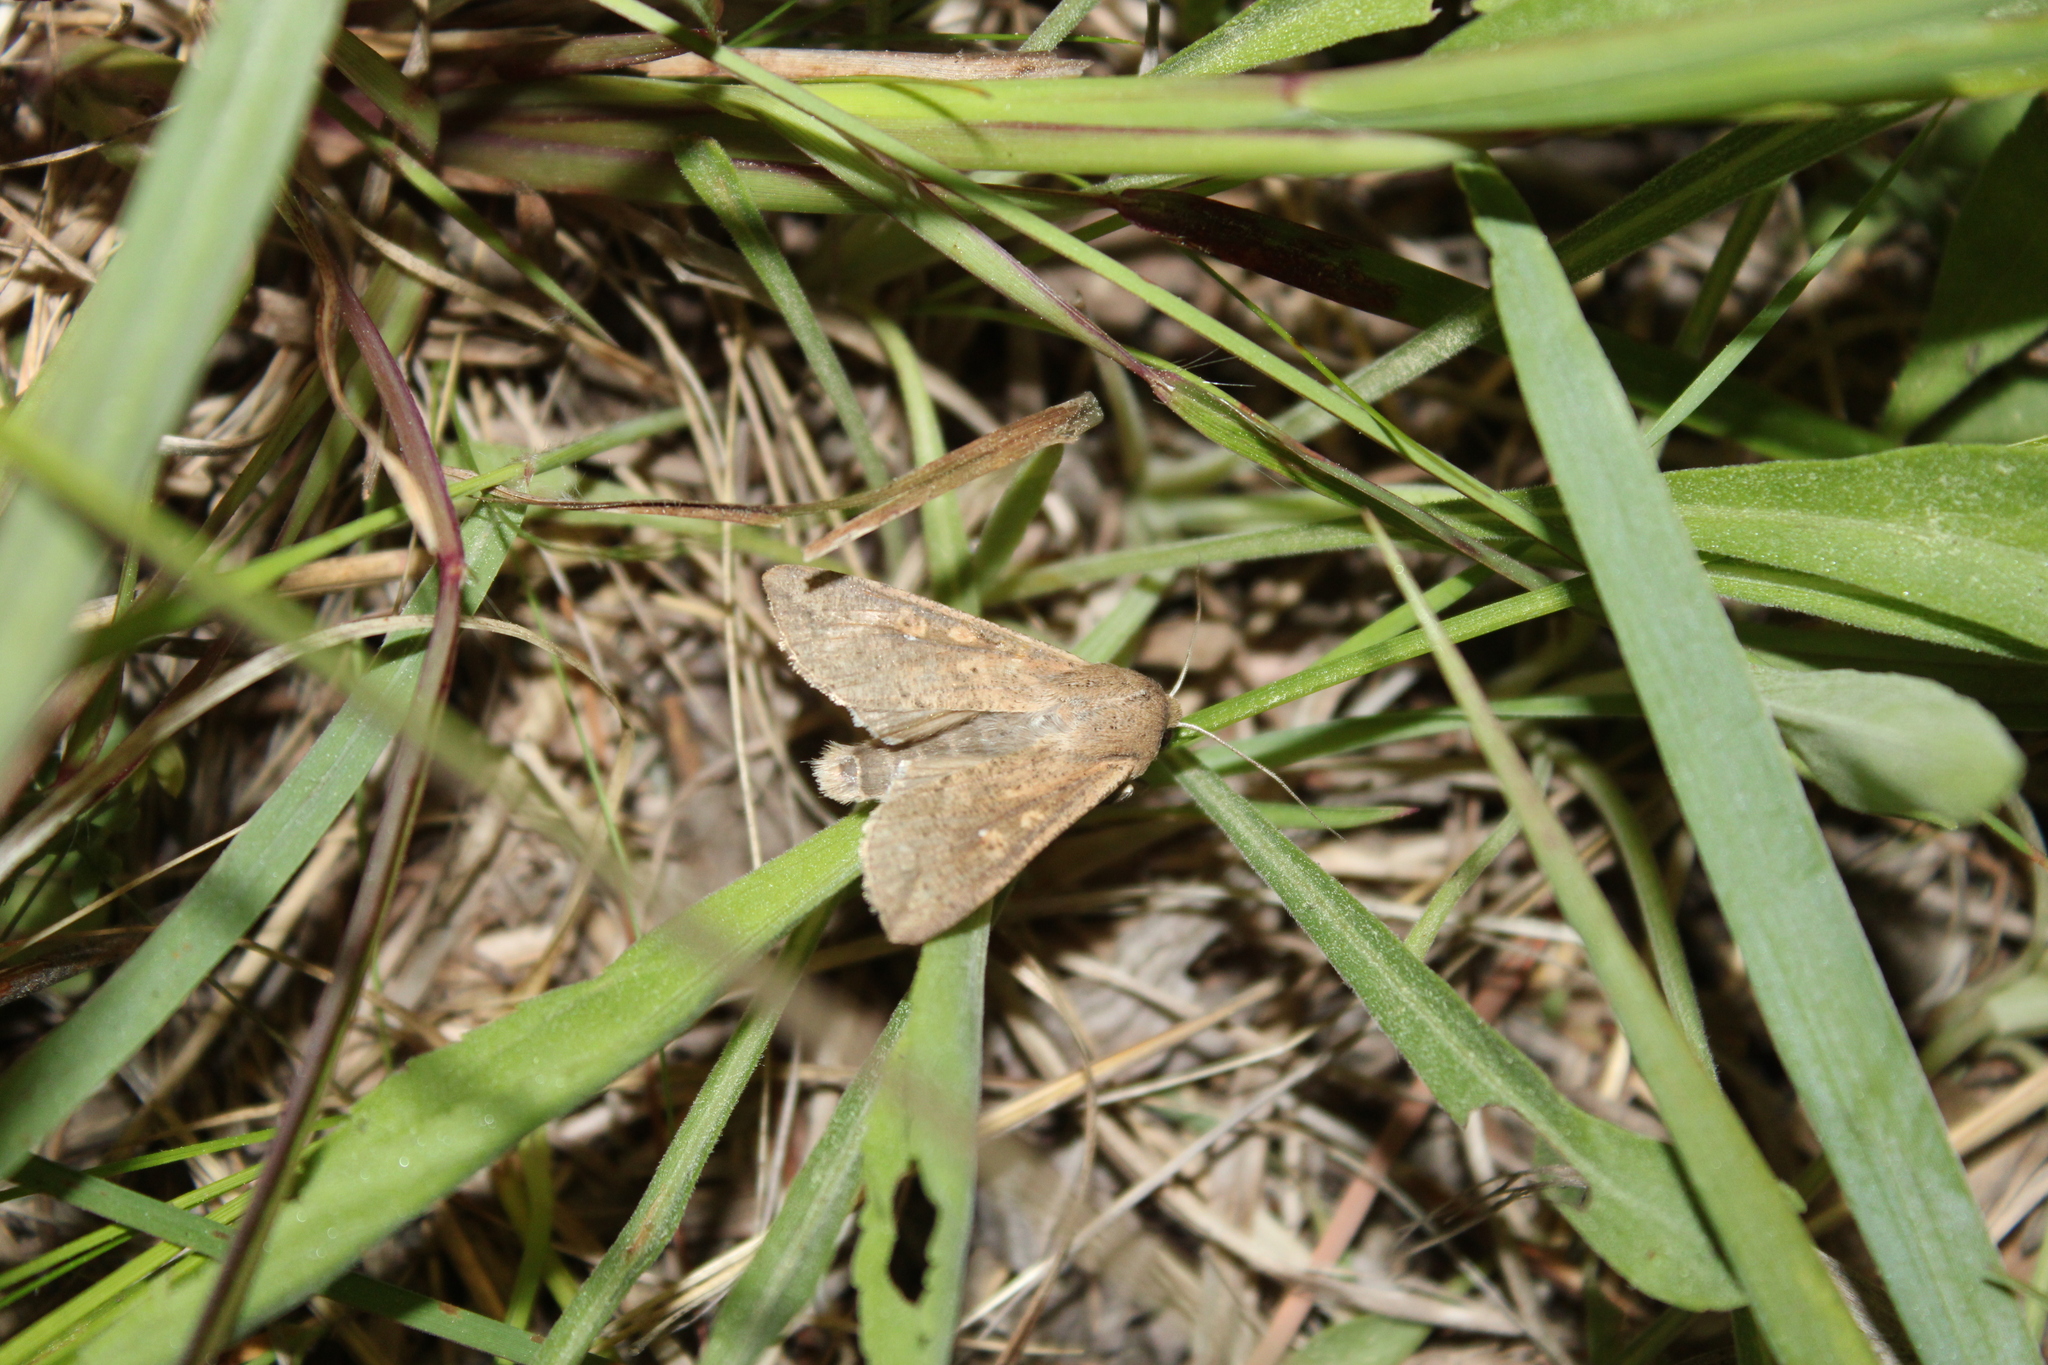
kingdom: Animalia
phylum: Arthropoda
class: Insecta
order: Lepidoptera
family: Noctuidae
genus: Mythimna
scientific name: Mythimna unipuncta
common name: White-speck
